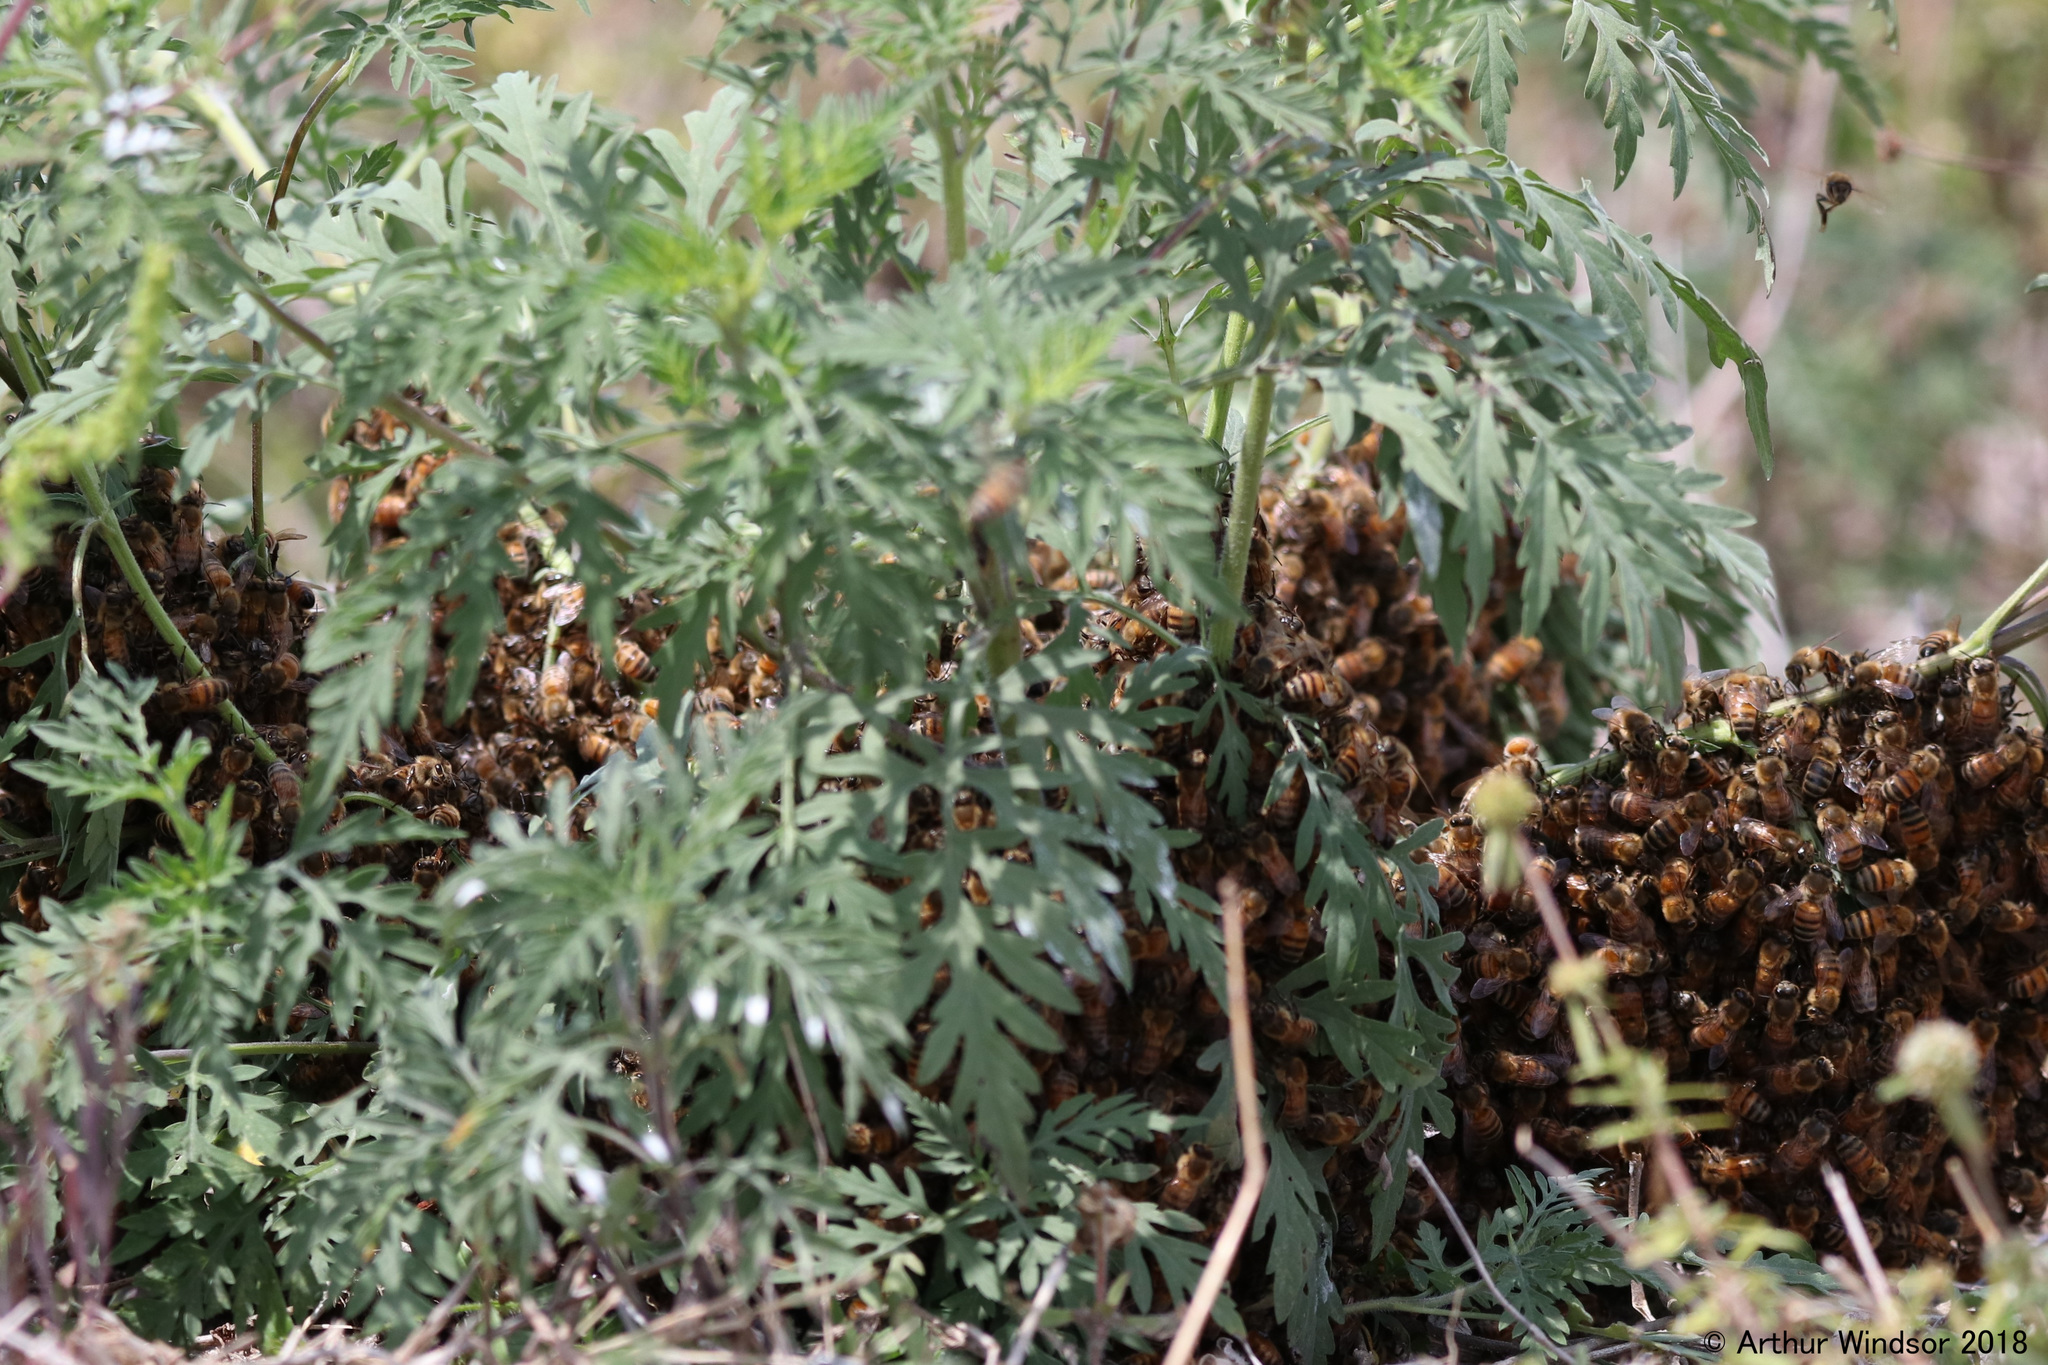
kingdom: Animalia
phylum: Arthropoda
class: Insecta
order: Hymenoptera
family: Apidae
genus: Apis
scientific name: Apis mellifera
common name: Honey bee
